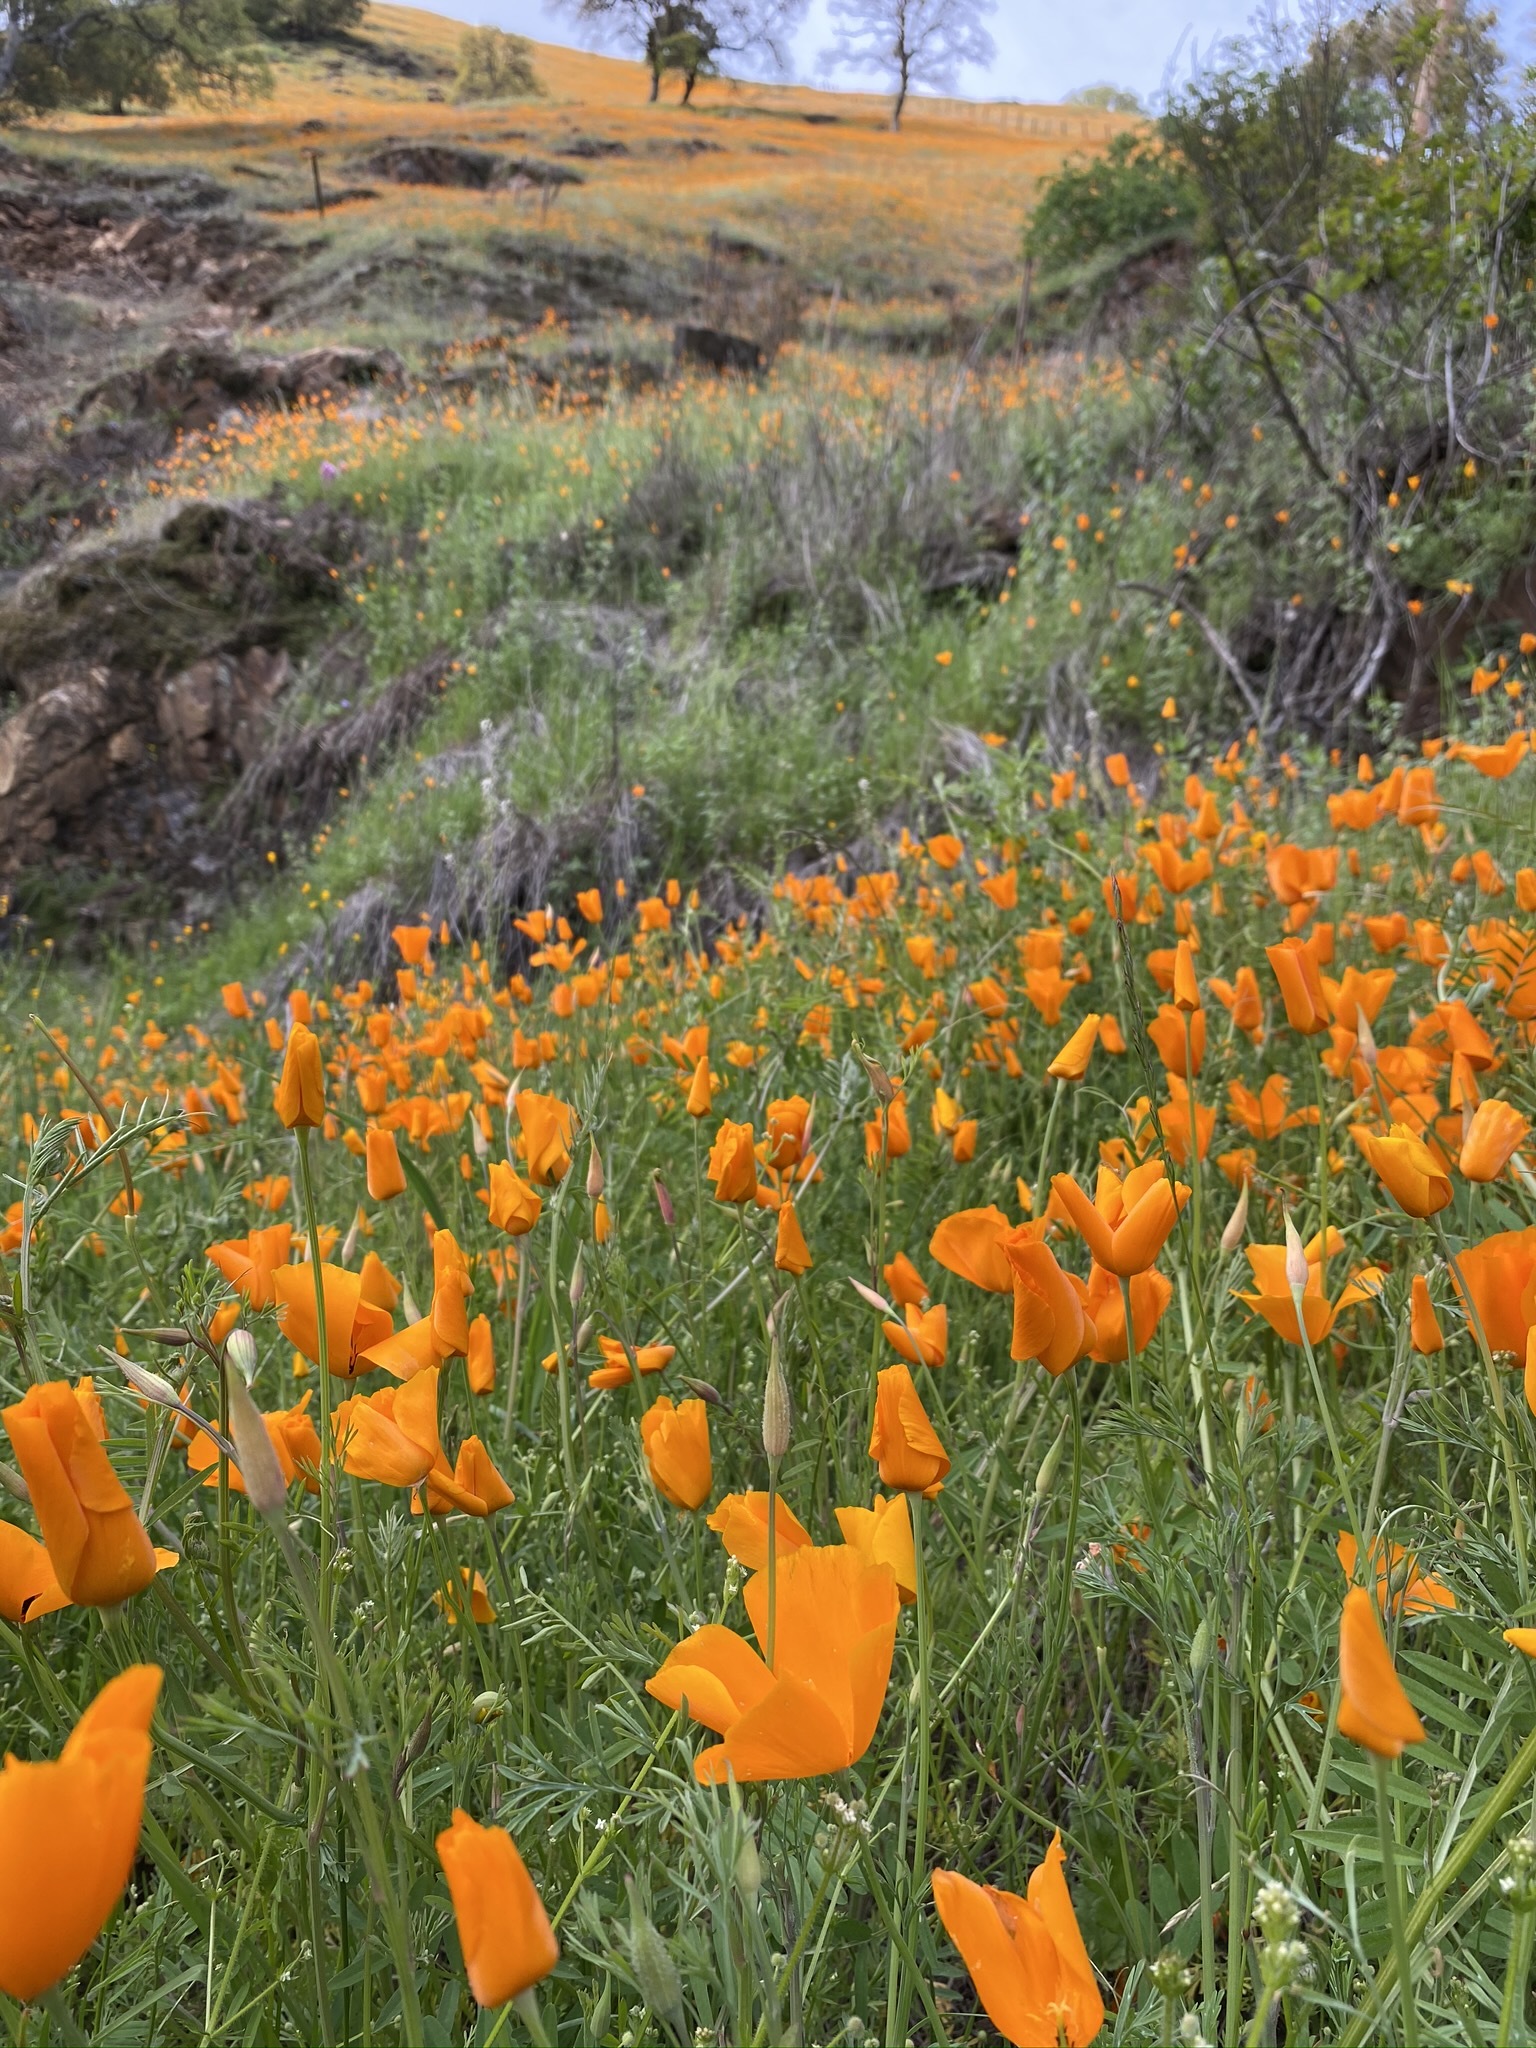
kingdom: Plantae
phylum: Tracheophyta
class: Magnoliopsida
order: Ranunculales
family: Papaveraceae
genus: Eschscholzia
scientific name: Eschscholzia californica
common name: California poppy
